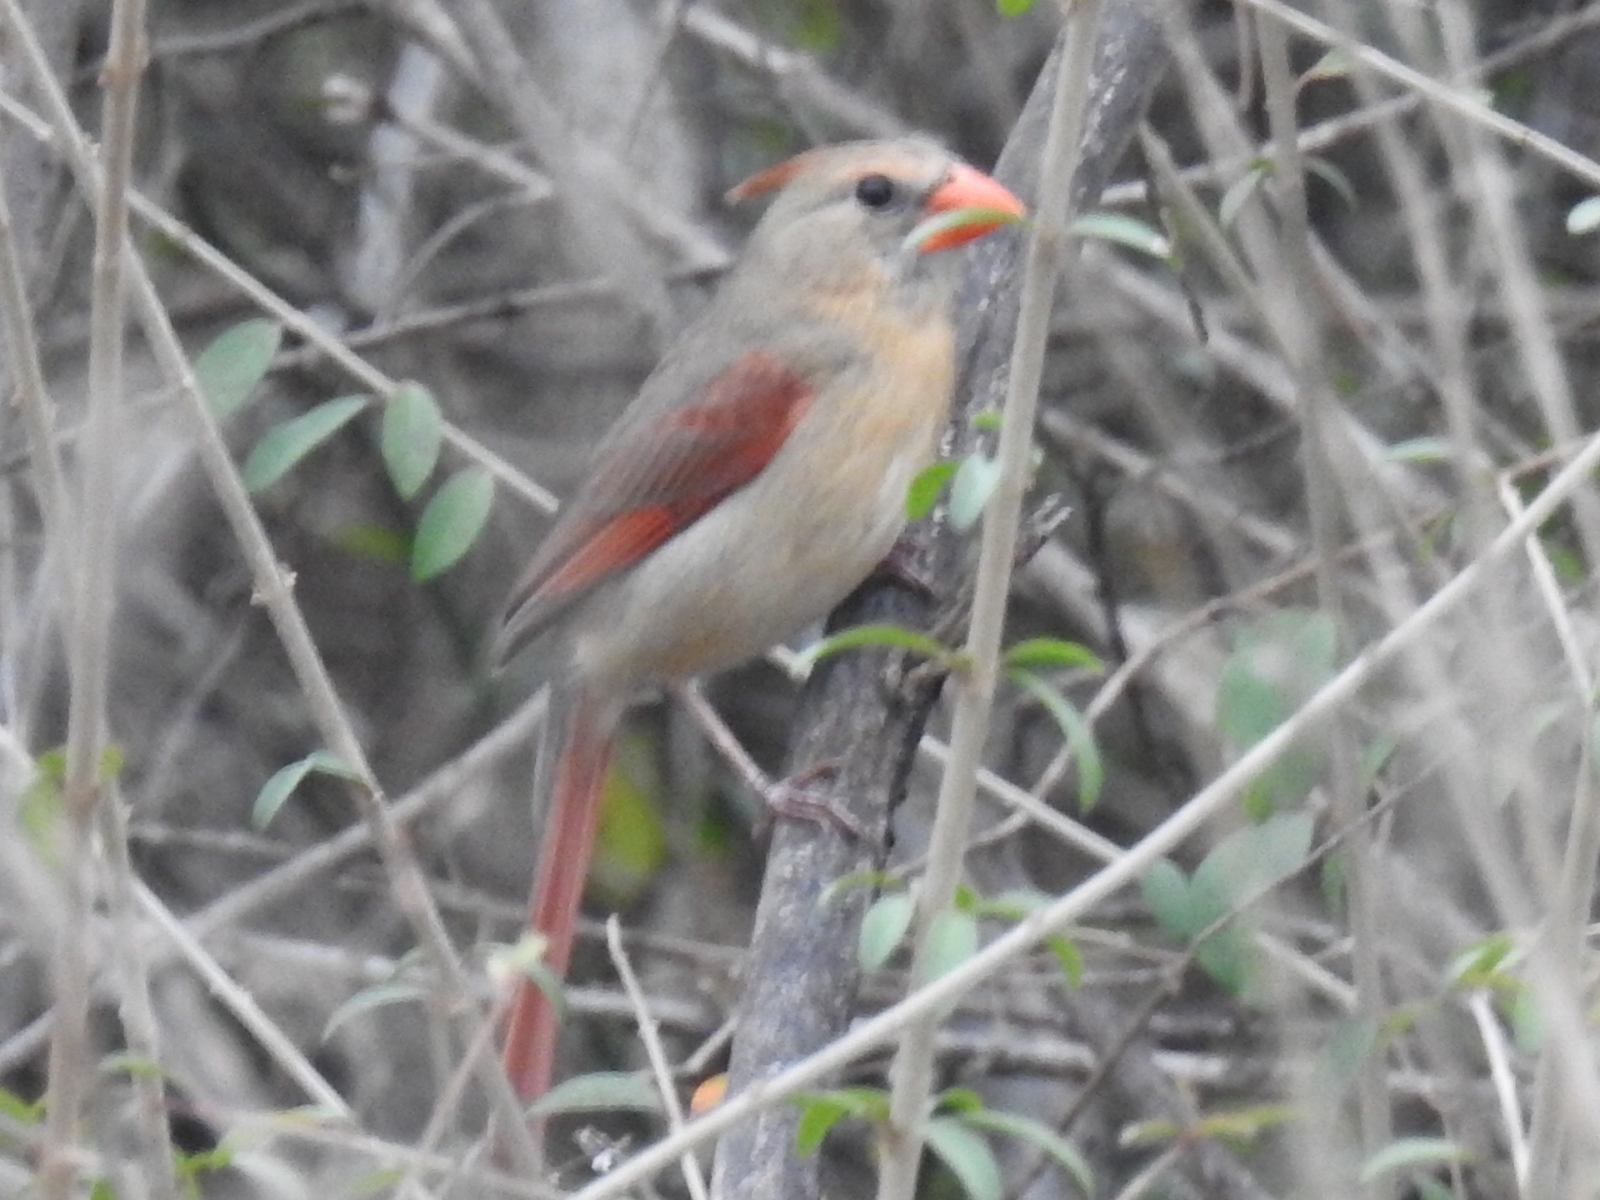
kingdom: Animalia
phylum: Chordata
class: Aves
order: Passeriformes
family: Cardinalidae
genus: Cardinalis
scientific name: Cardinalis cardinalis
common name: Northern cardinal
